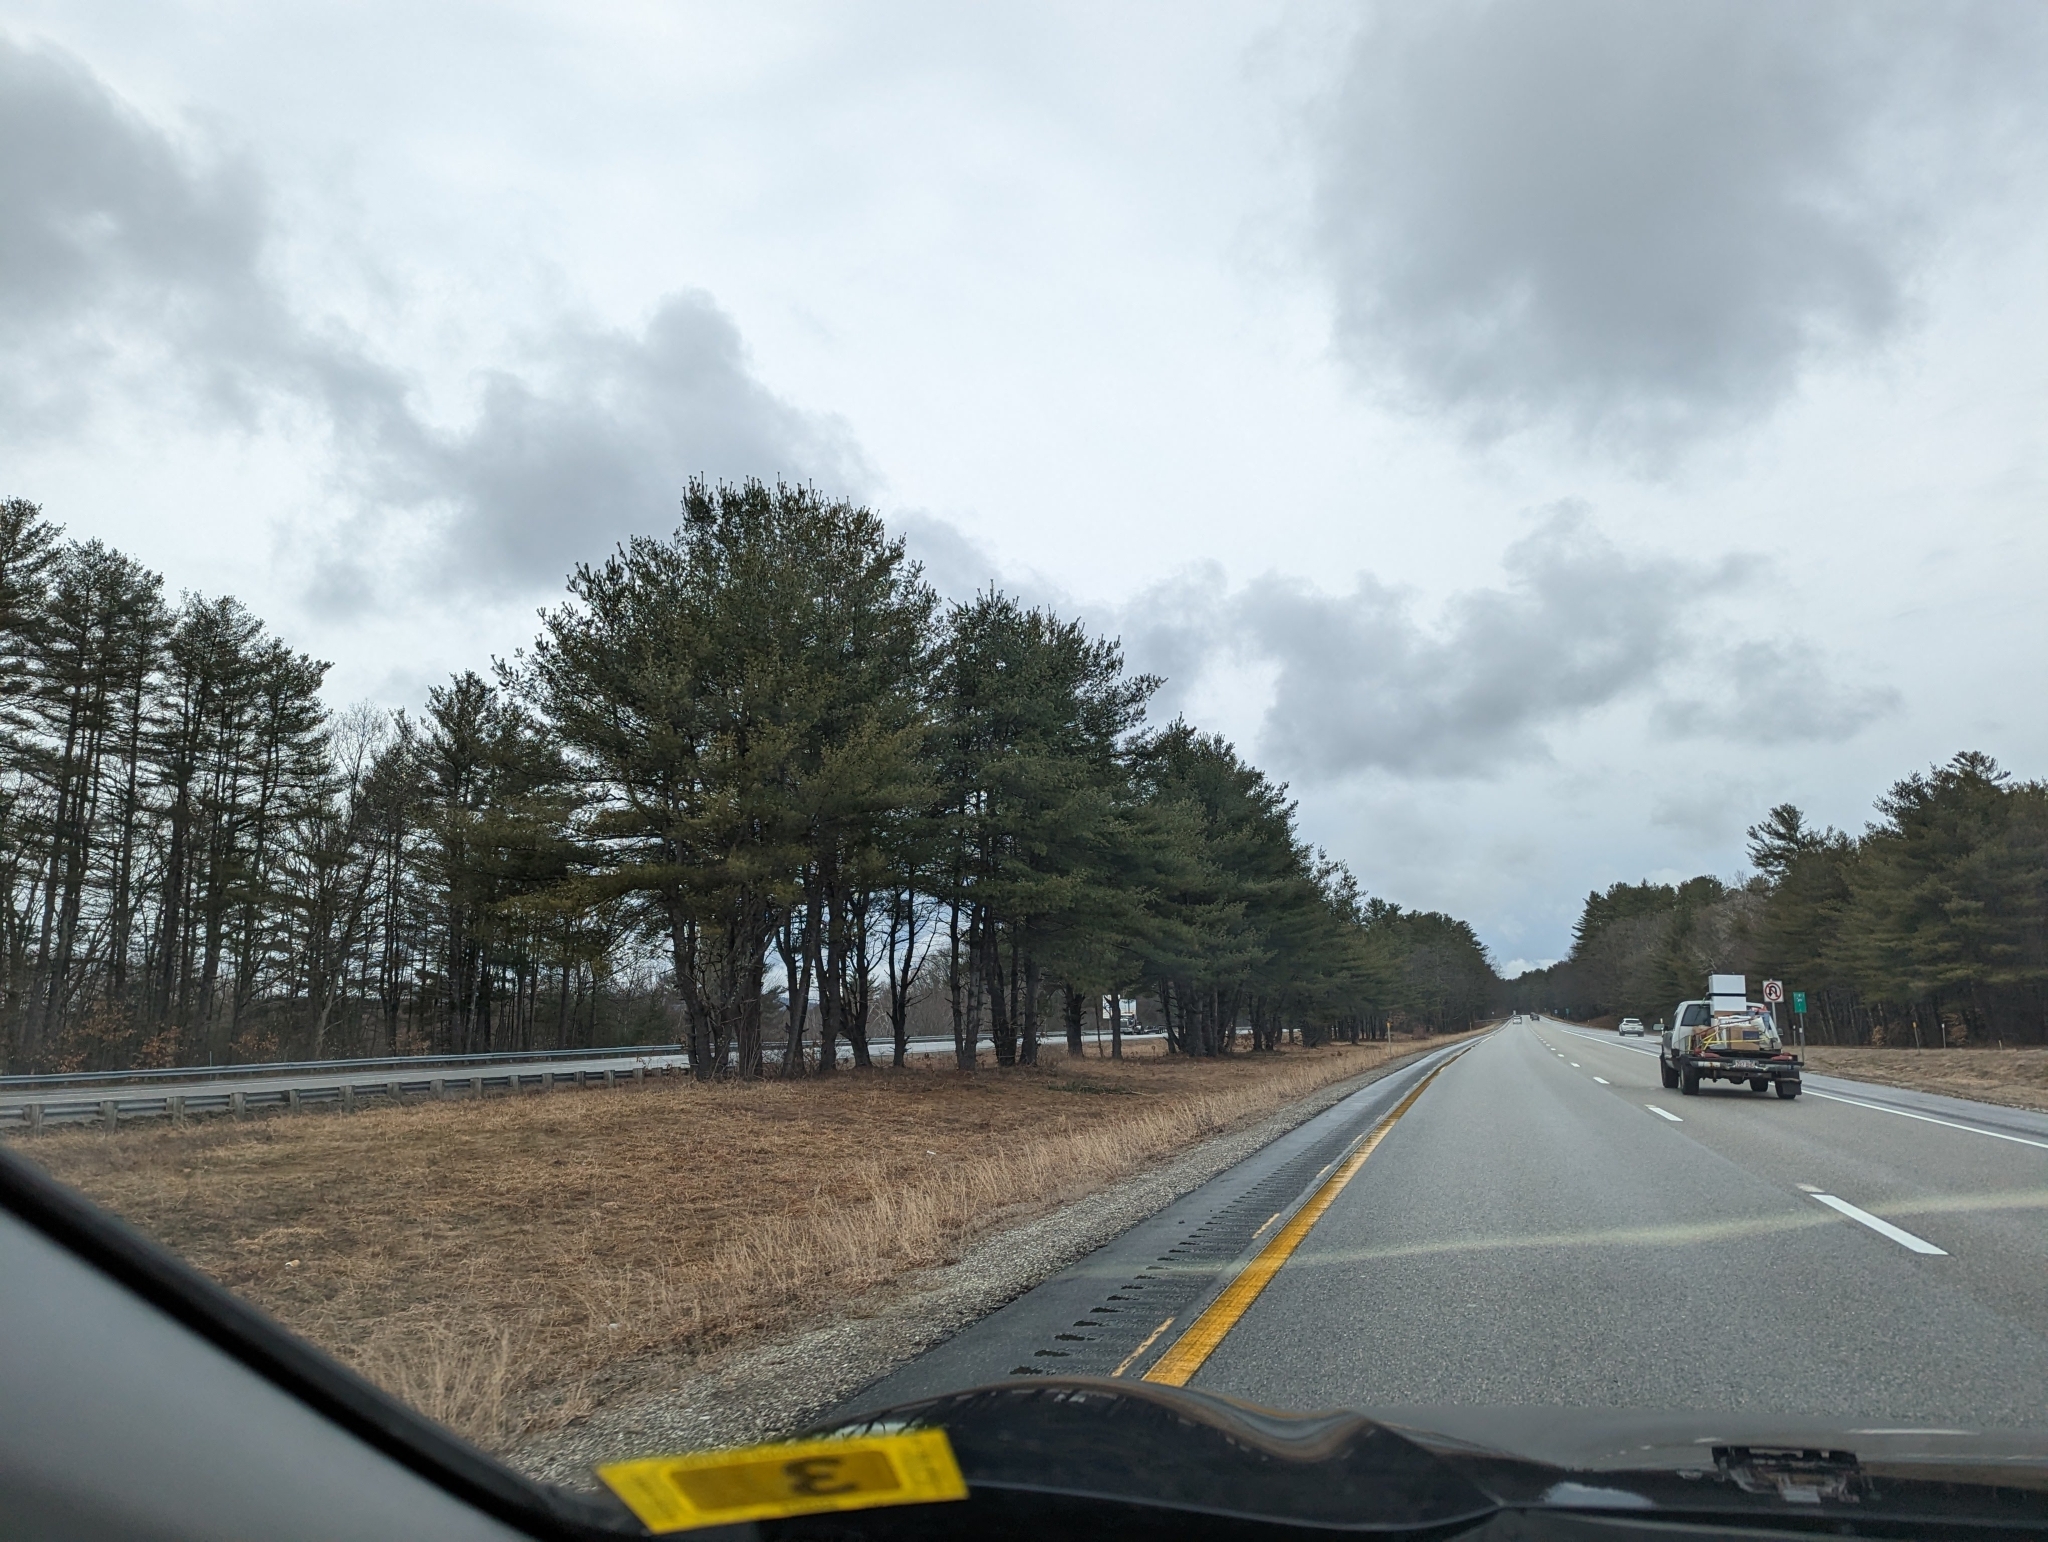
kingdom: Plantae
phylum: Tracheophyta
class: Pinopsida
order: Pinales
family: Pinaceae
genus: Pinus
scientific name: Pinus strobus
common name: Weymouth pine
